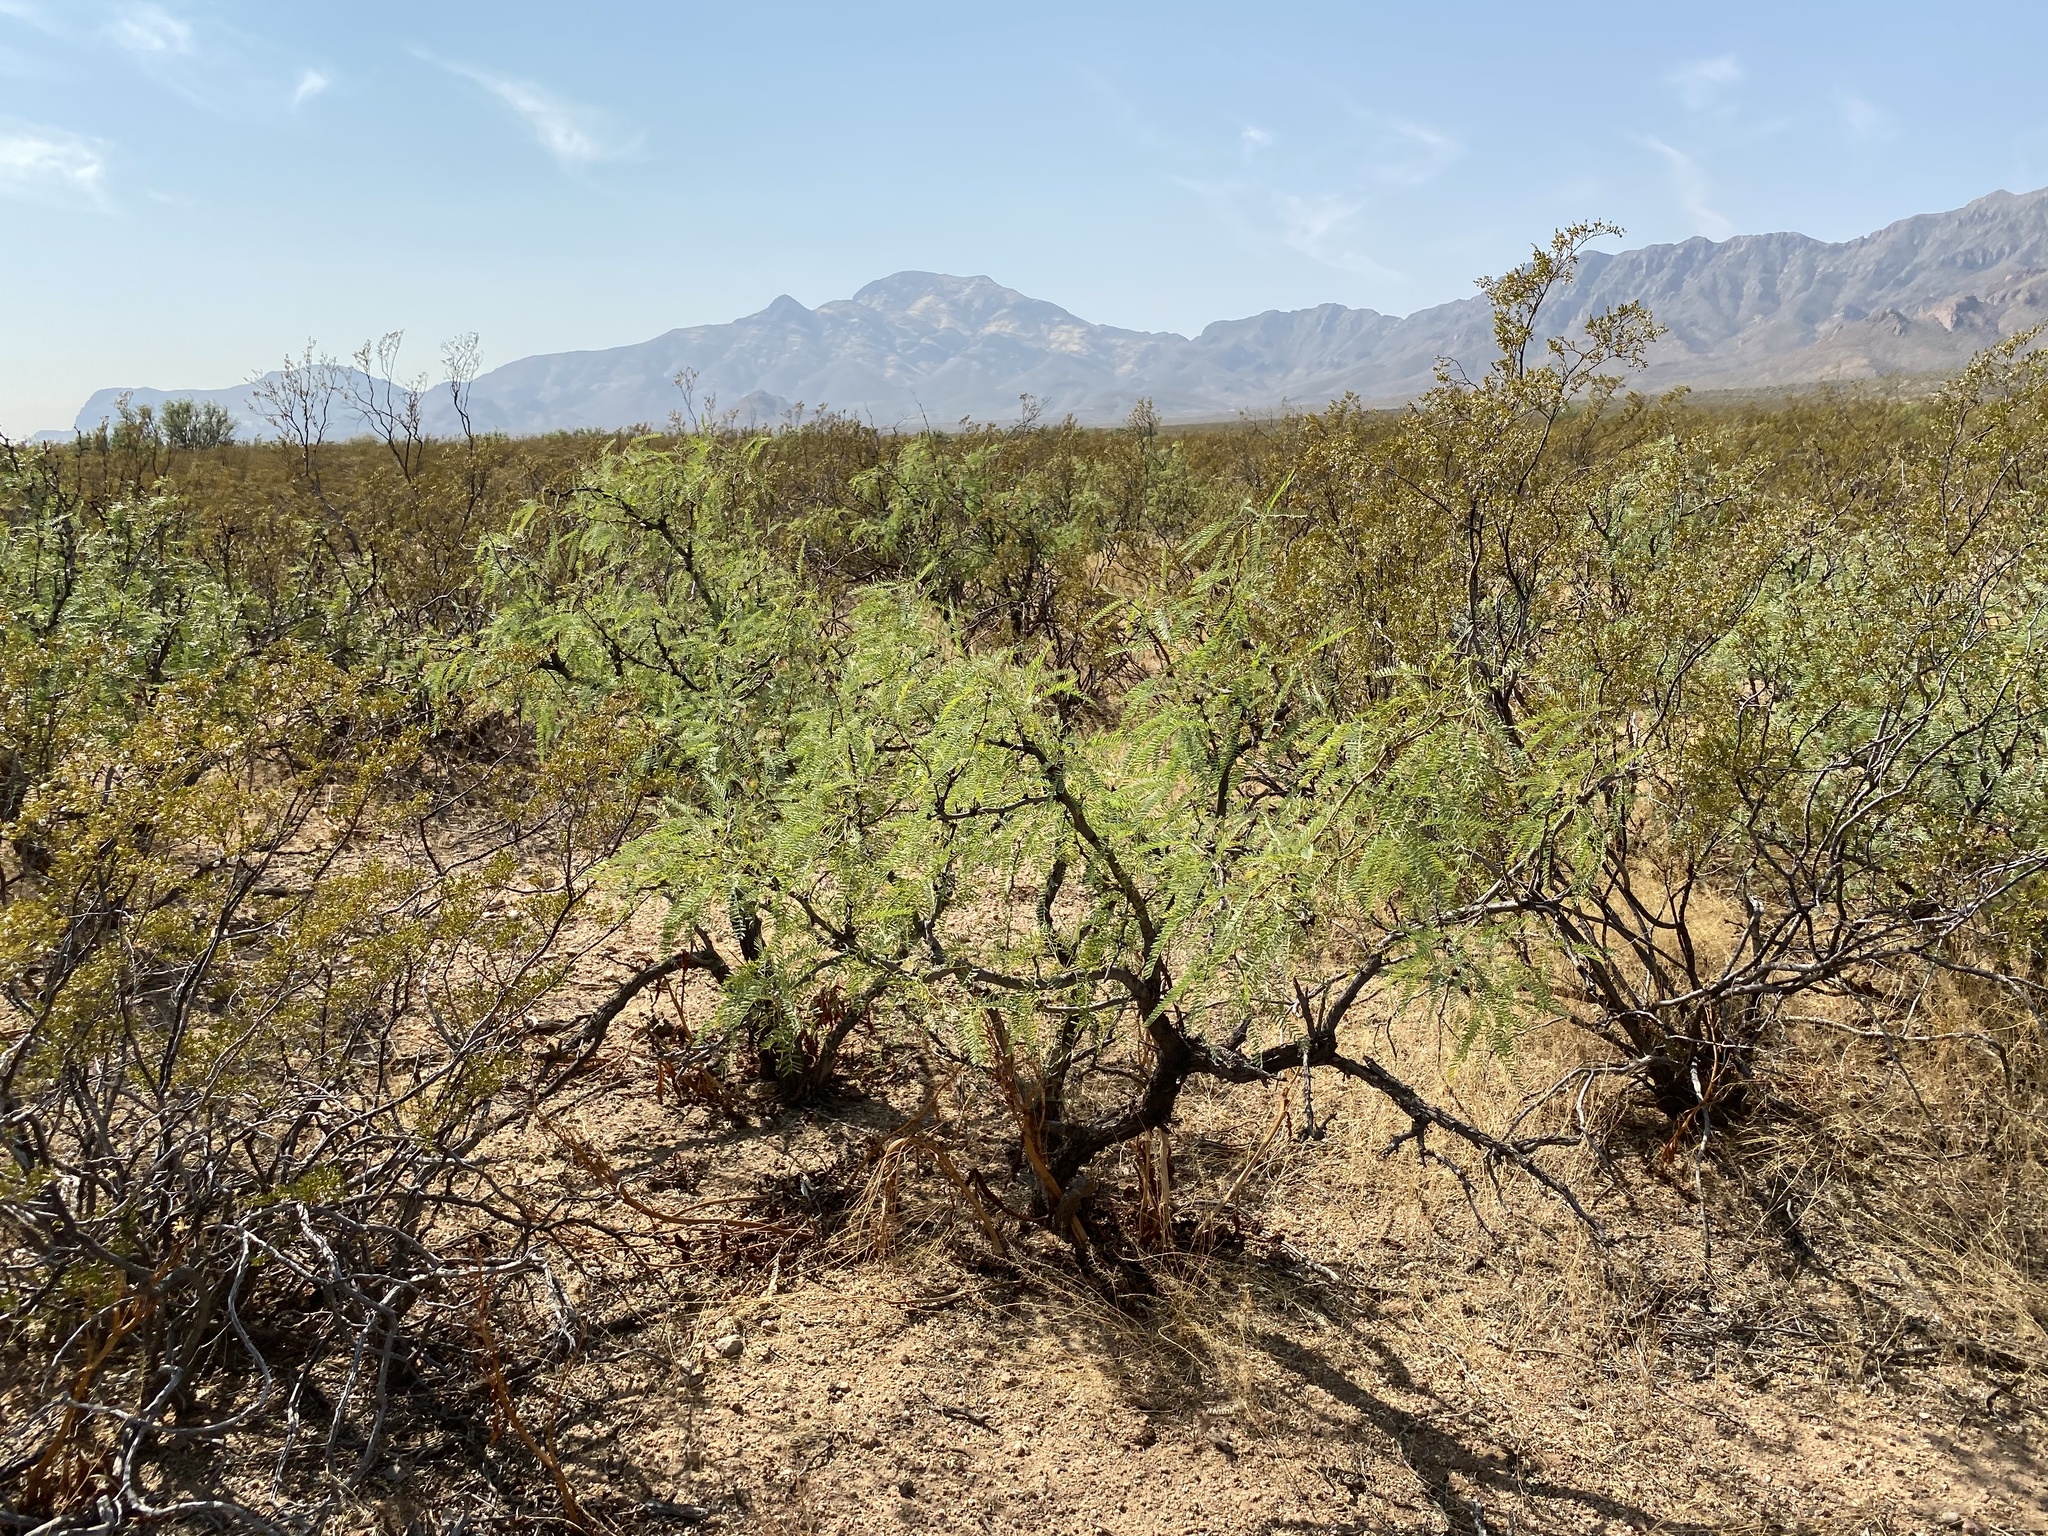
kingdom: Plantae
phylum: Tracheophyta
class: Magnoliopsida
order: Fabales
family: Fabaceae
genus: Prosopis
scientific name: Prosopis glandulosa
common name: Honey mesquite
